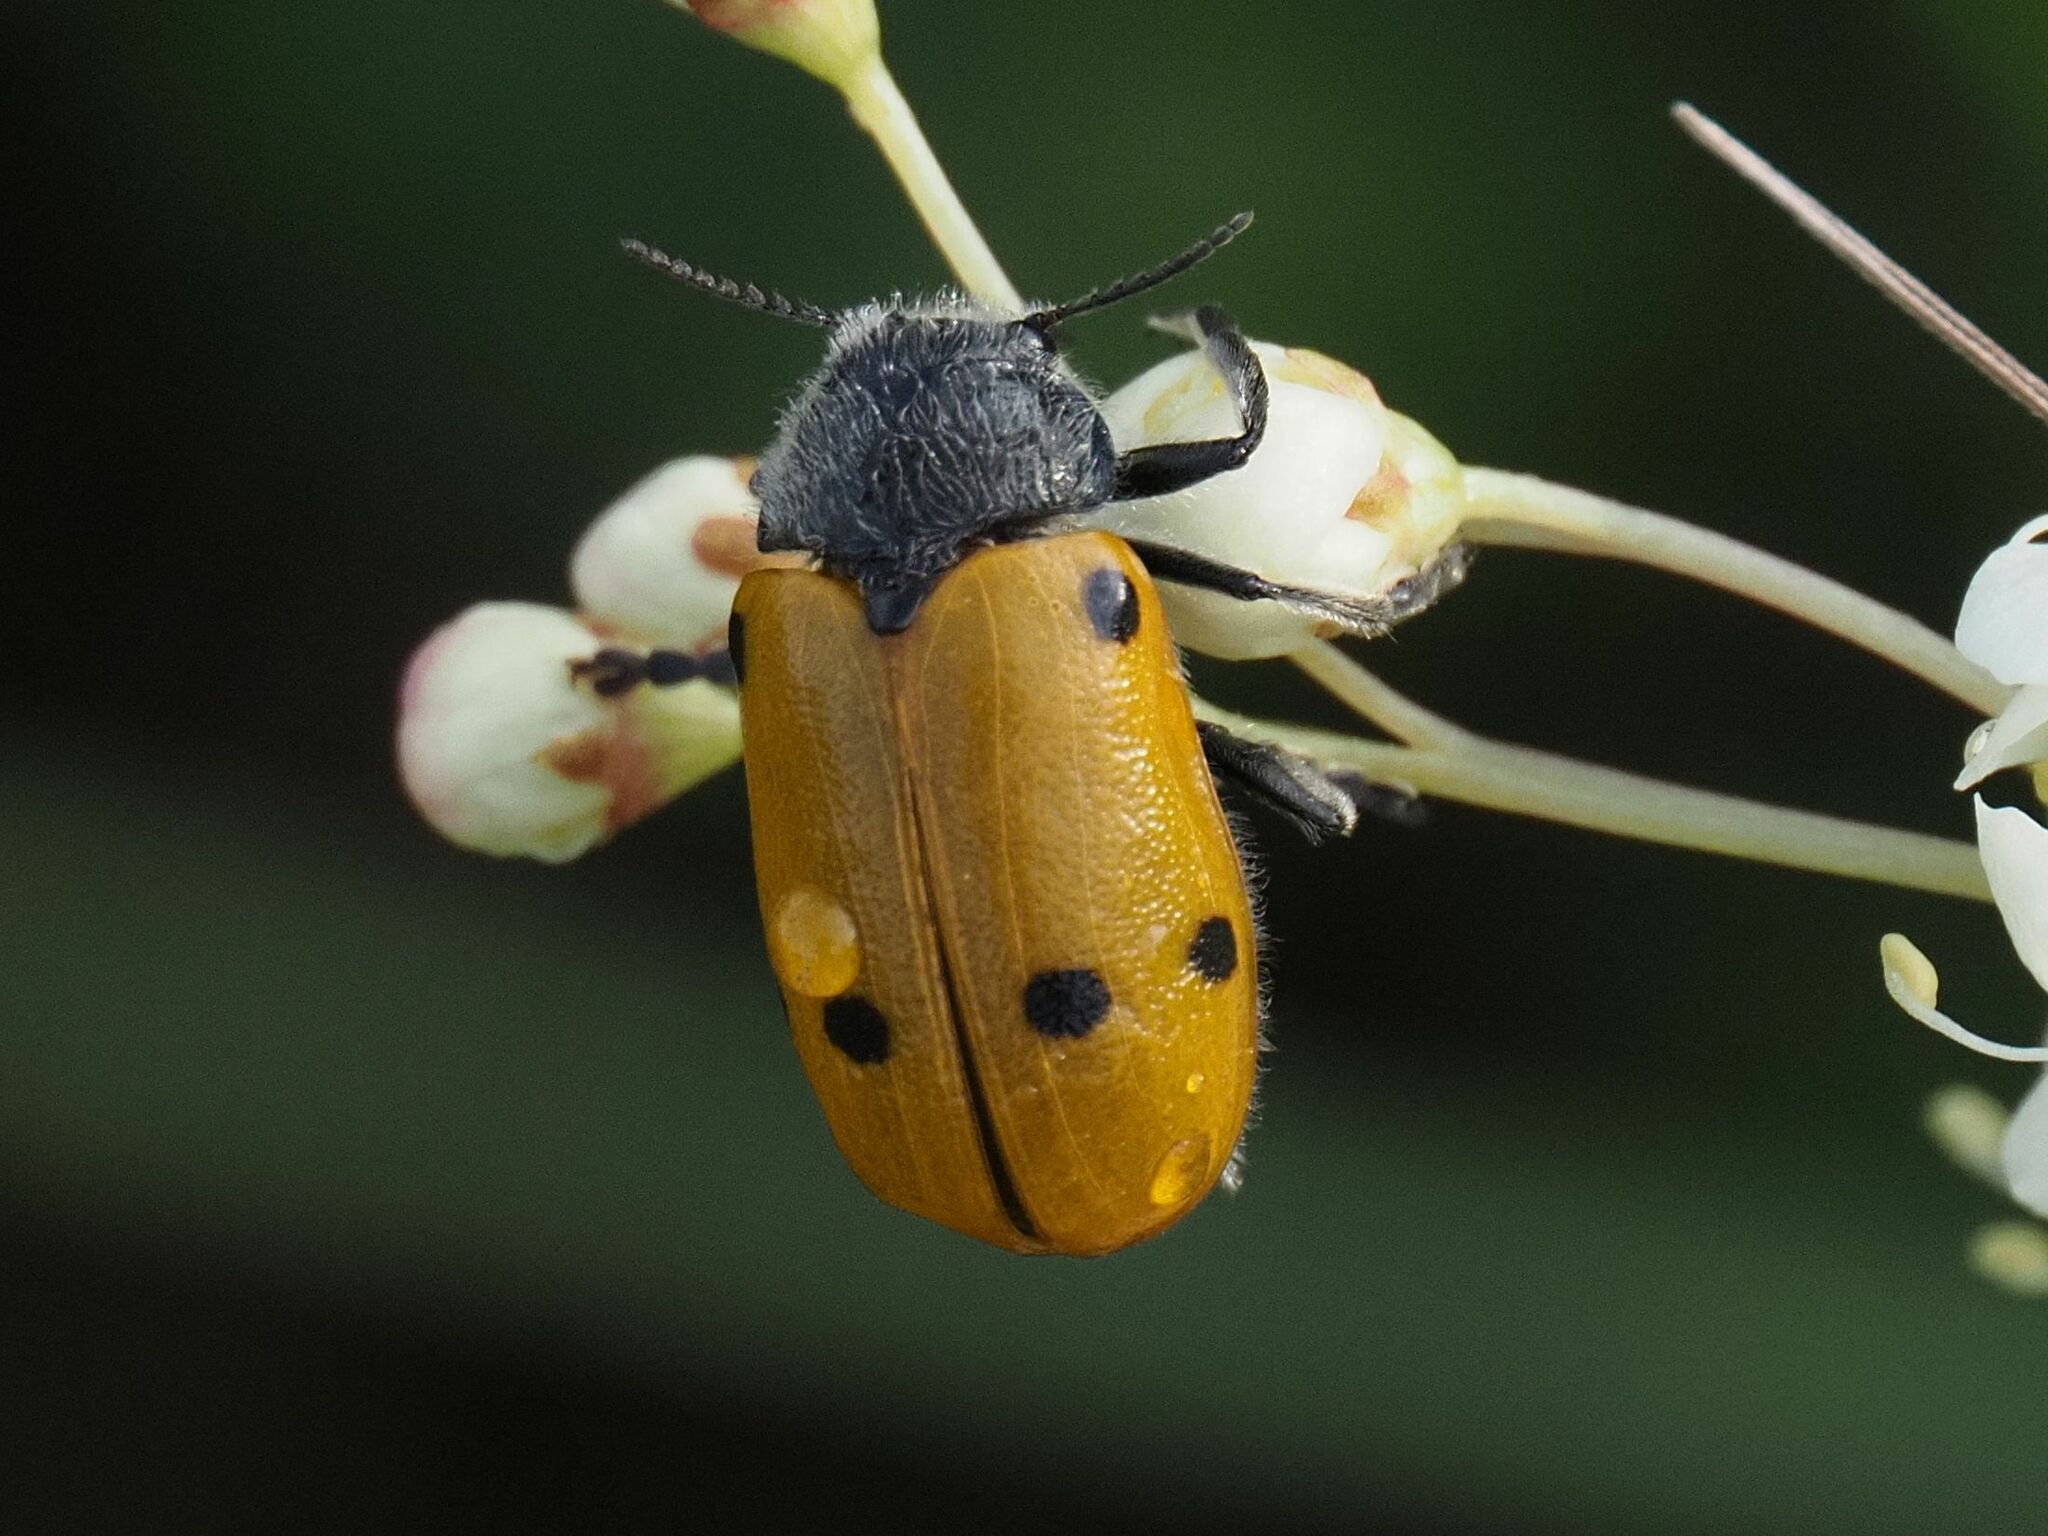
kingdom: Animalia
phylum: Arthropoda
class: Insecta
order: Coleoptera
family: Chrysomelidae
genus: Lachnaia
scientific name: Lachnaia sexpunctata
